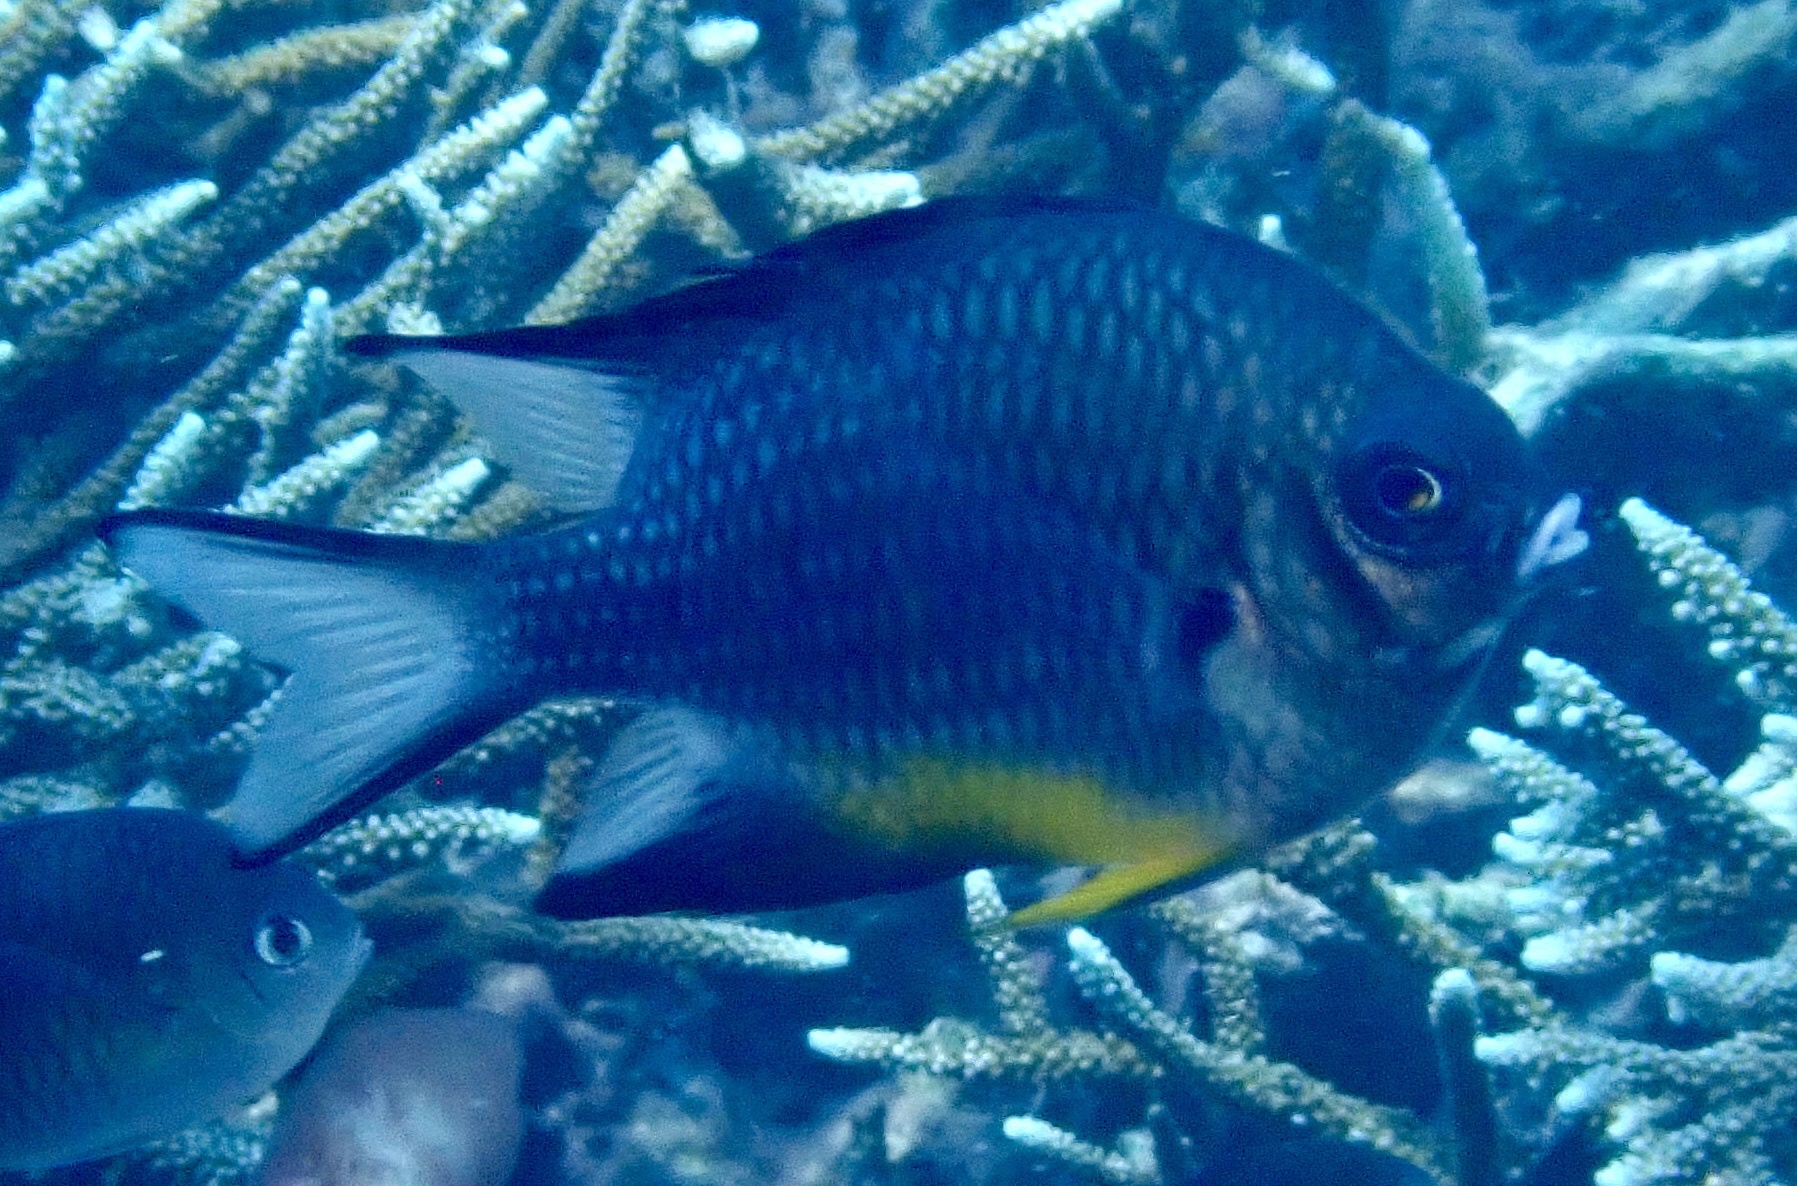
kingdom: Animalia
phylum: Chordata
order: Perciformes
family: Pomacentridae
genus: Amblyglyphidodon
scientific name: Amblyglyphidodon leucogaster
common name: White-belly damsel
